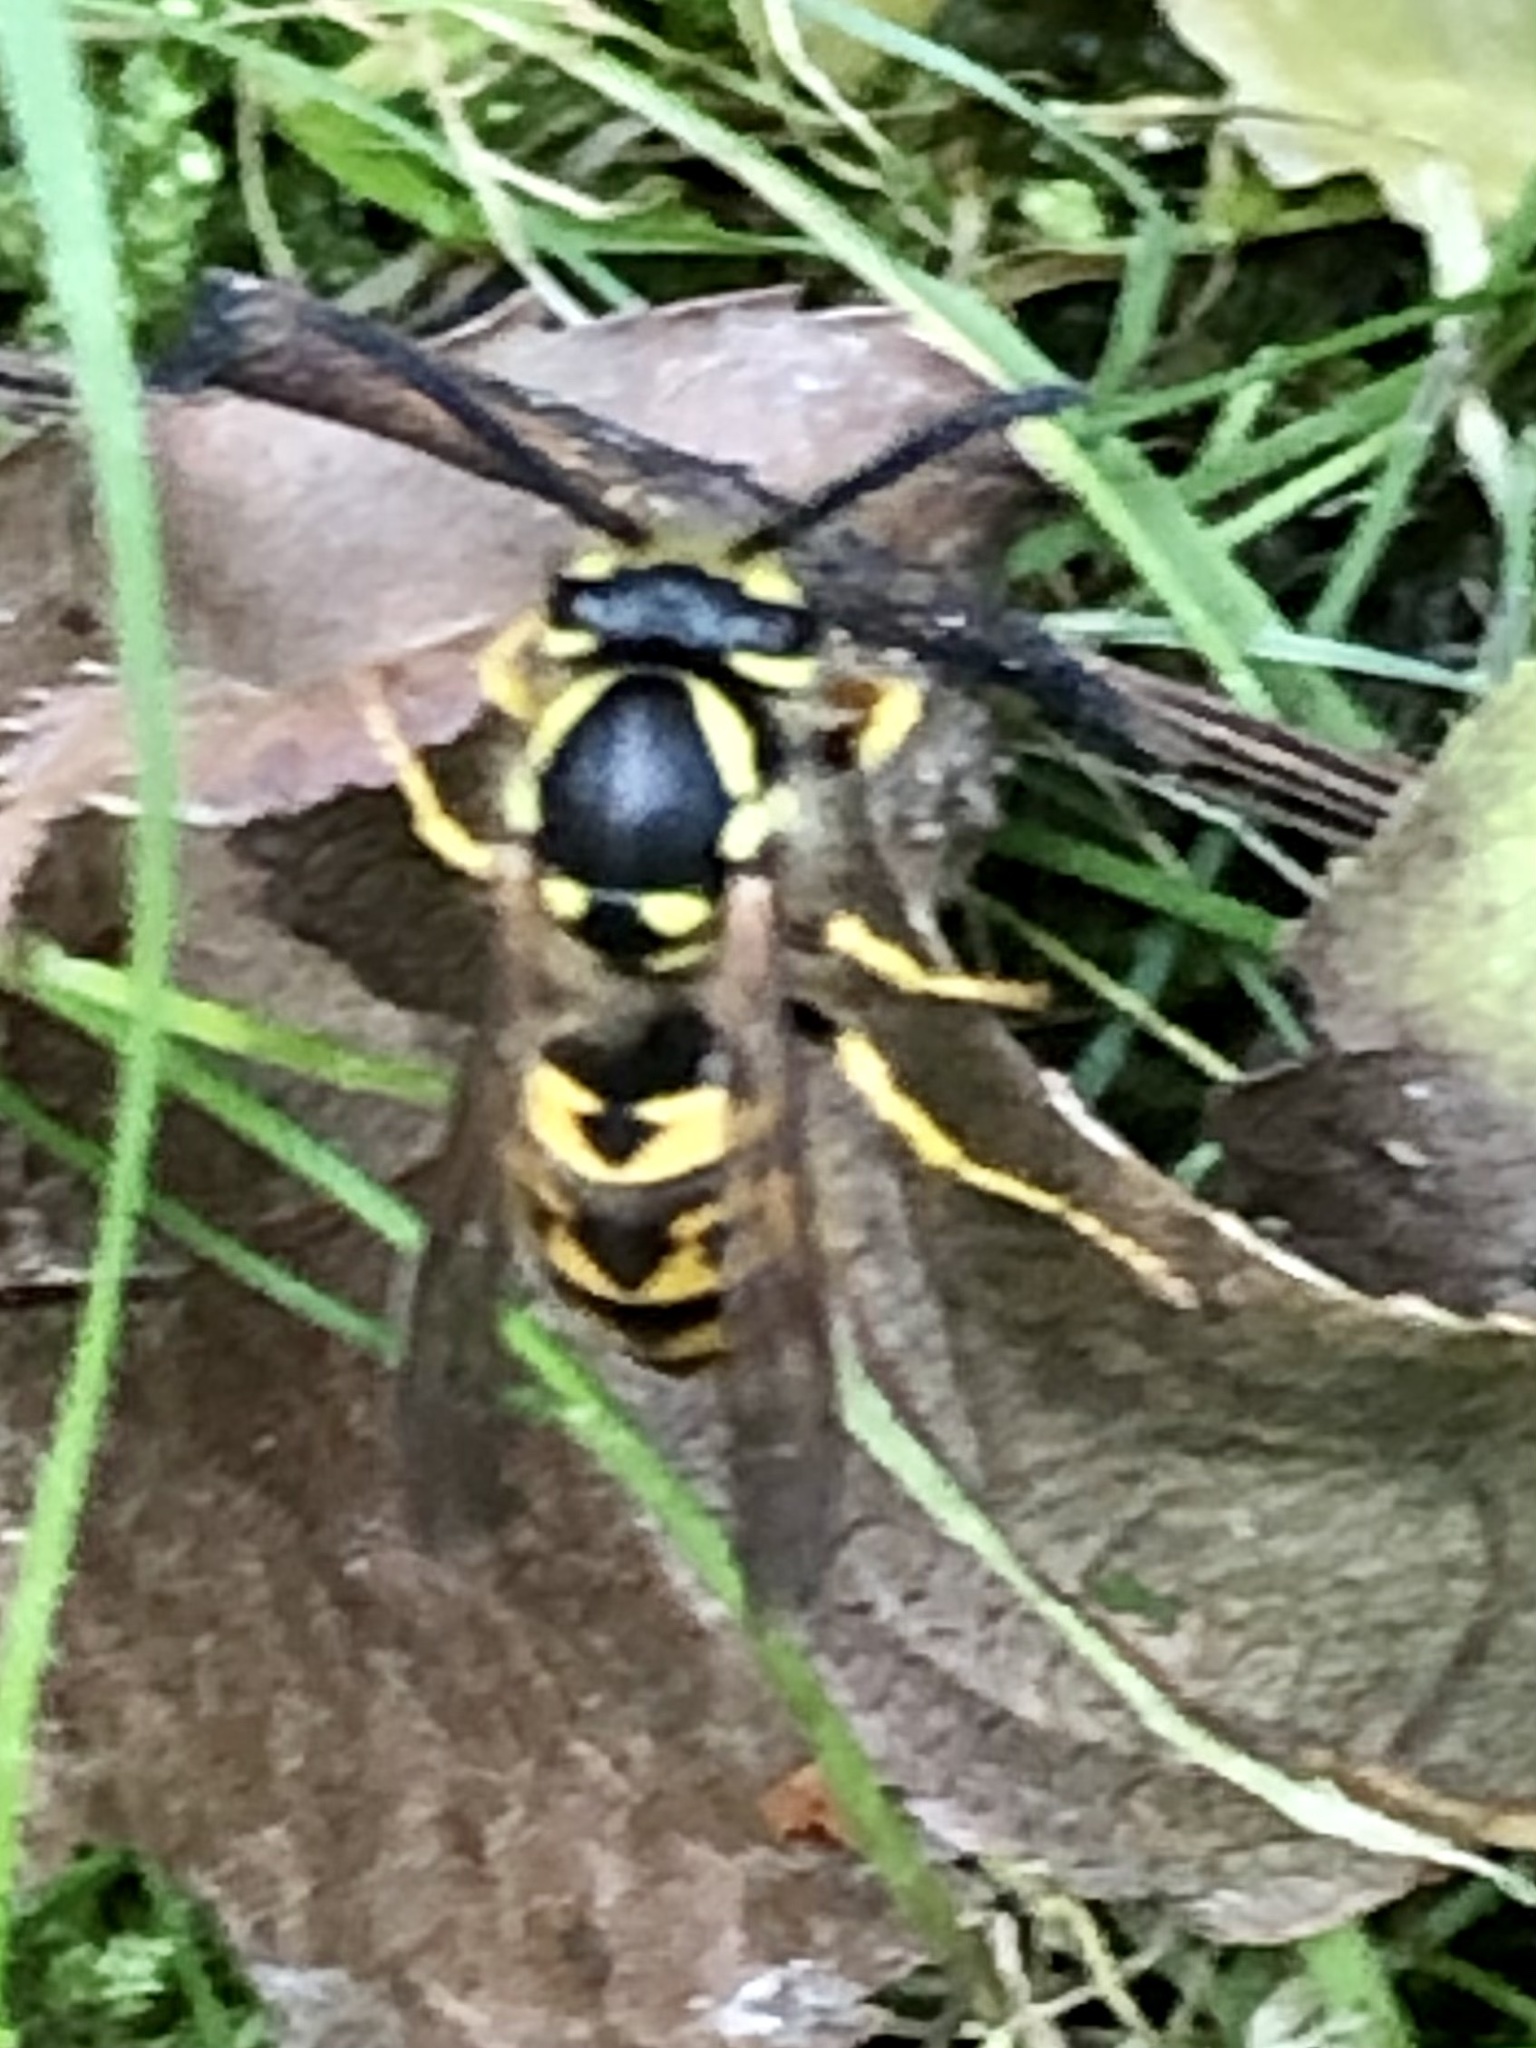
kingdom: Animalia
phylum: Arthropoda
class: Insecta
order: Hymenoptera
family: Vespidae
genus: Vespula
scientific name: Vespula germanica
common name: German wasp
